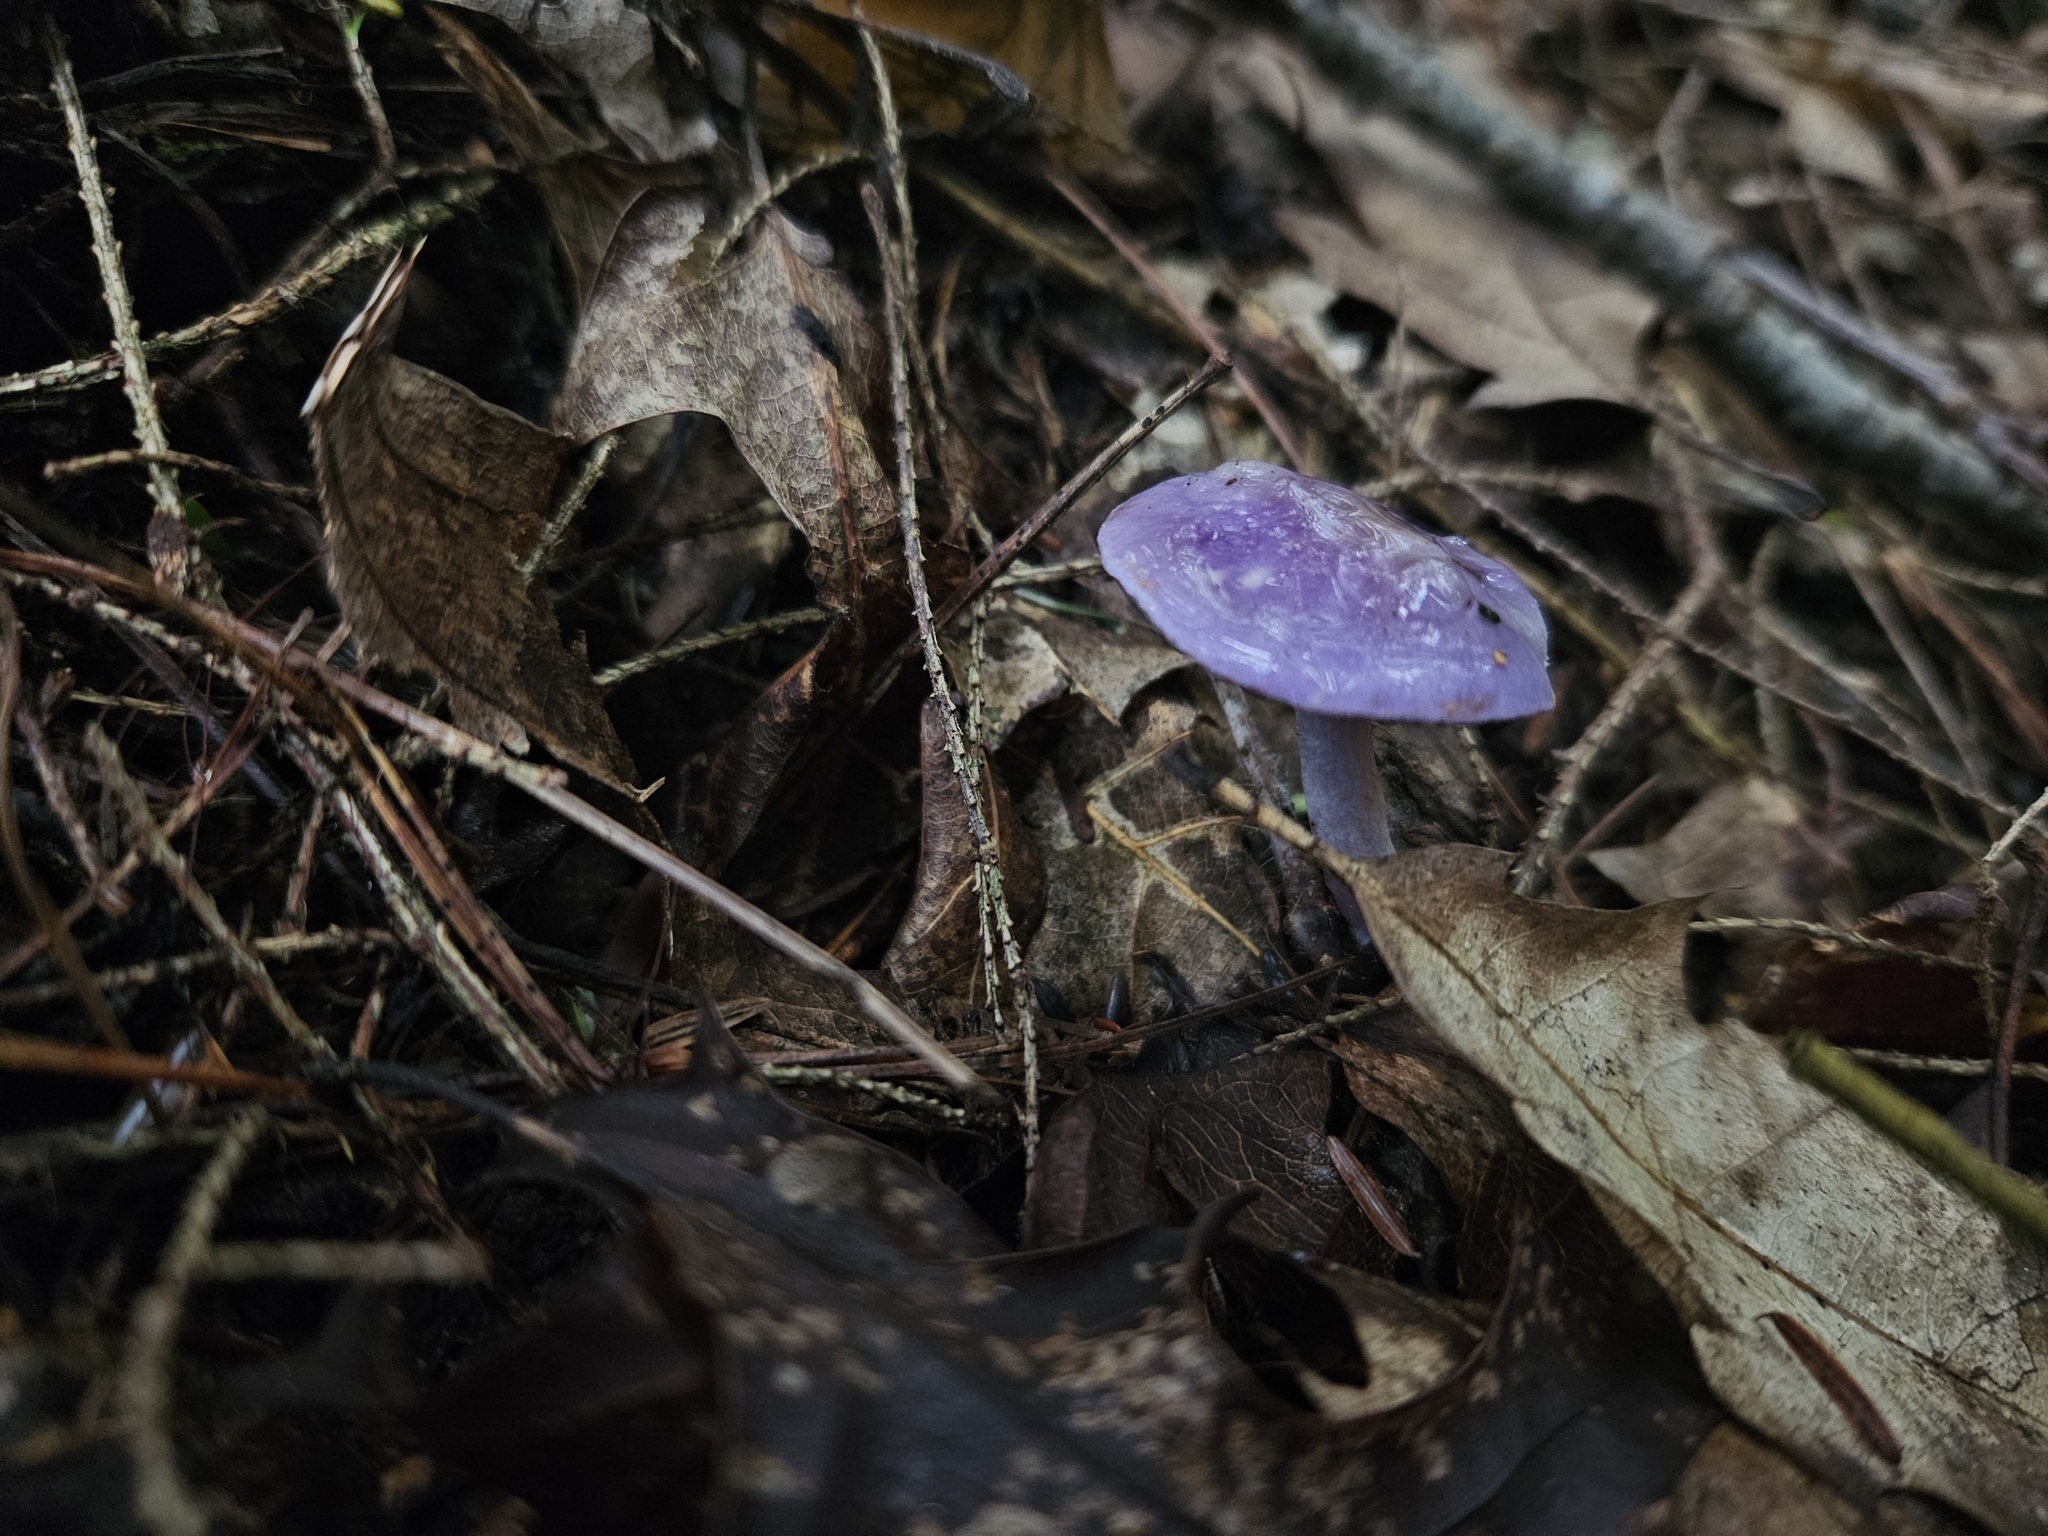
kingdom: Fungi
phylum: Basidiomycota
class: Agaricomycetes
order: Agaricales
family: Cortinariaceae
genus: Cortinarius
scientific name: Cortinarius iodes
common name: Viscid violet cort
